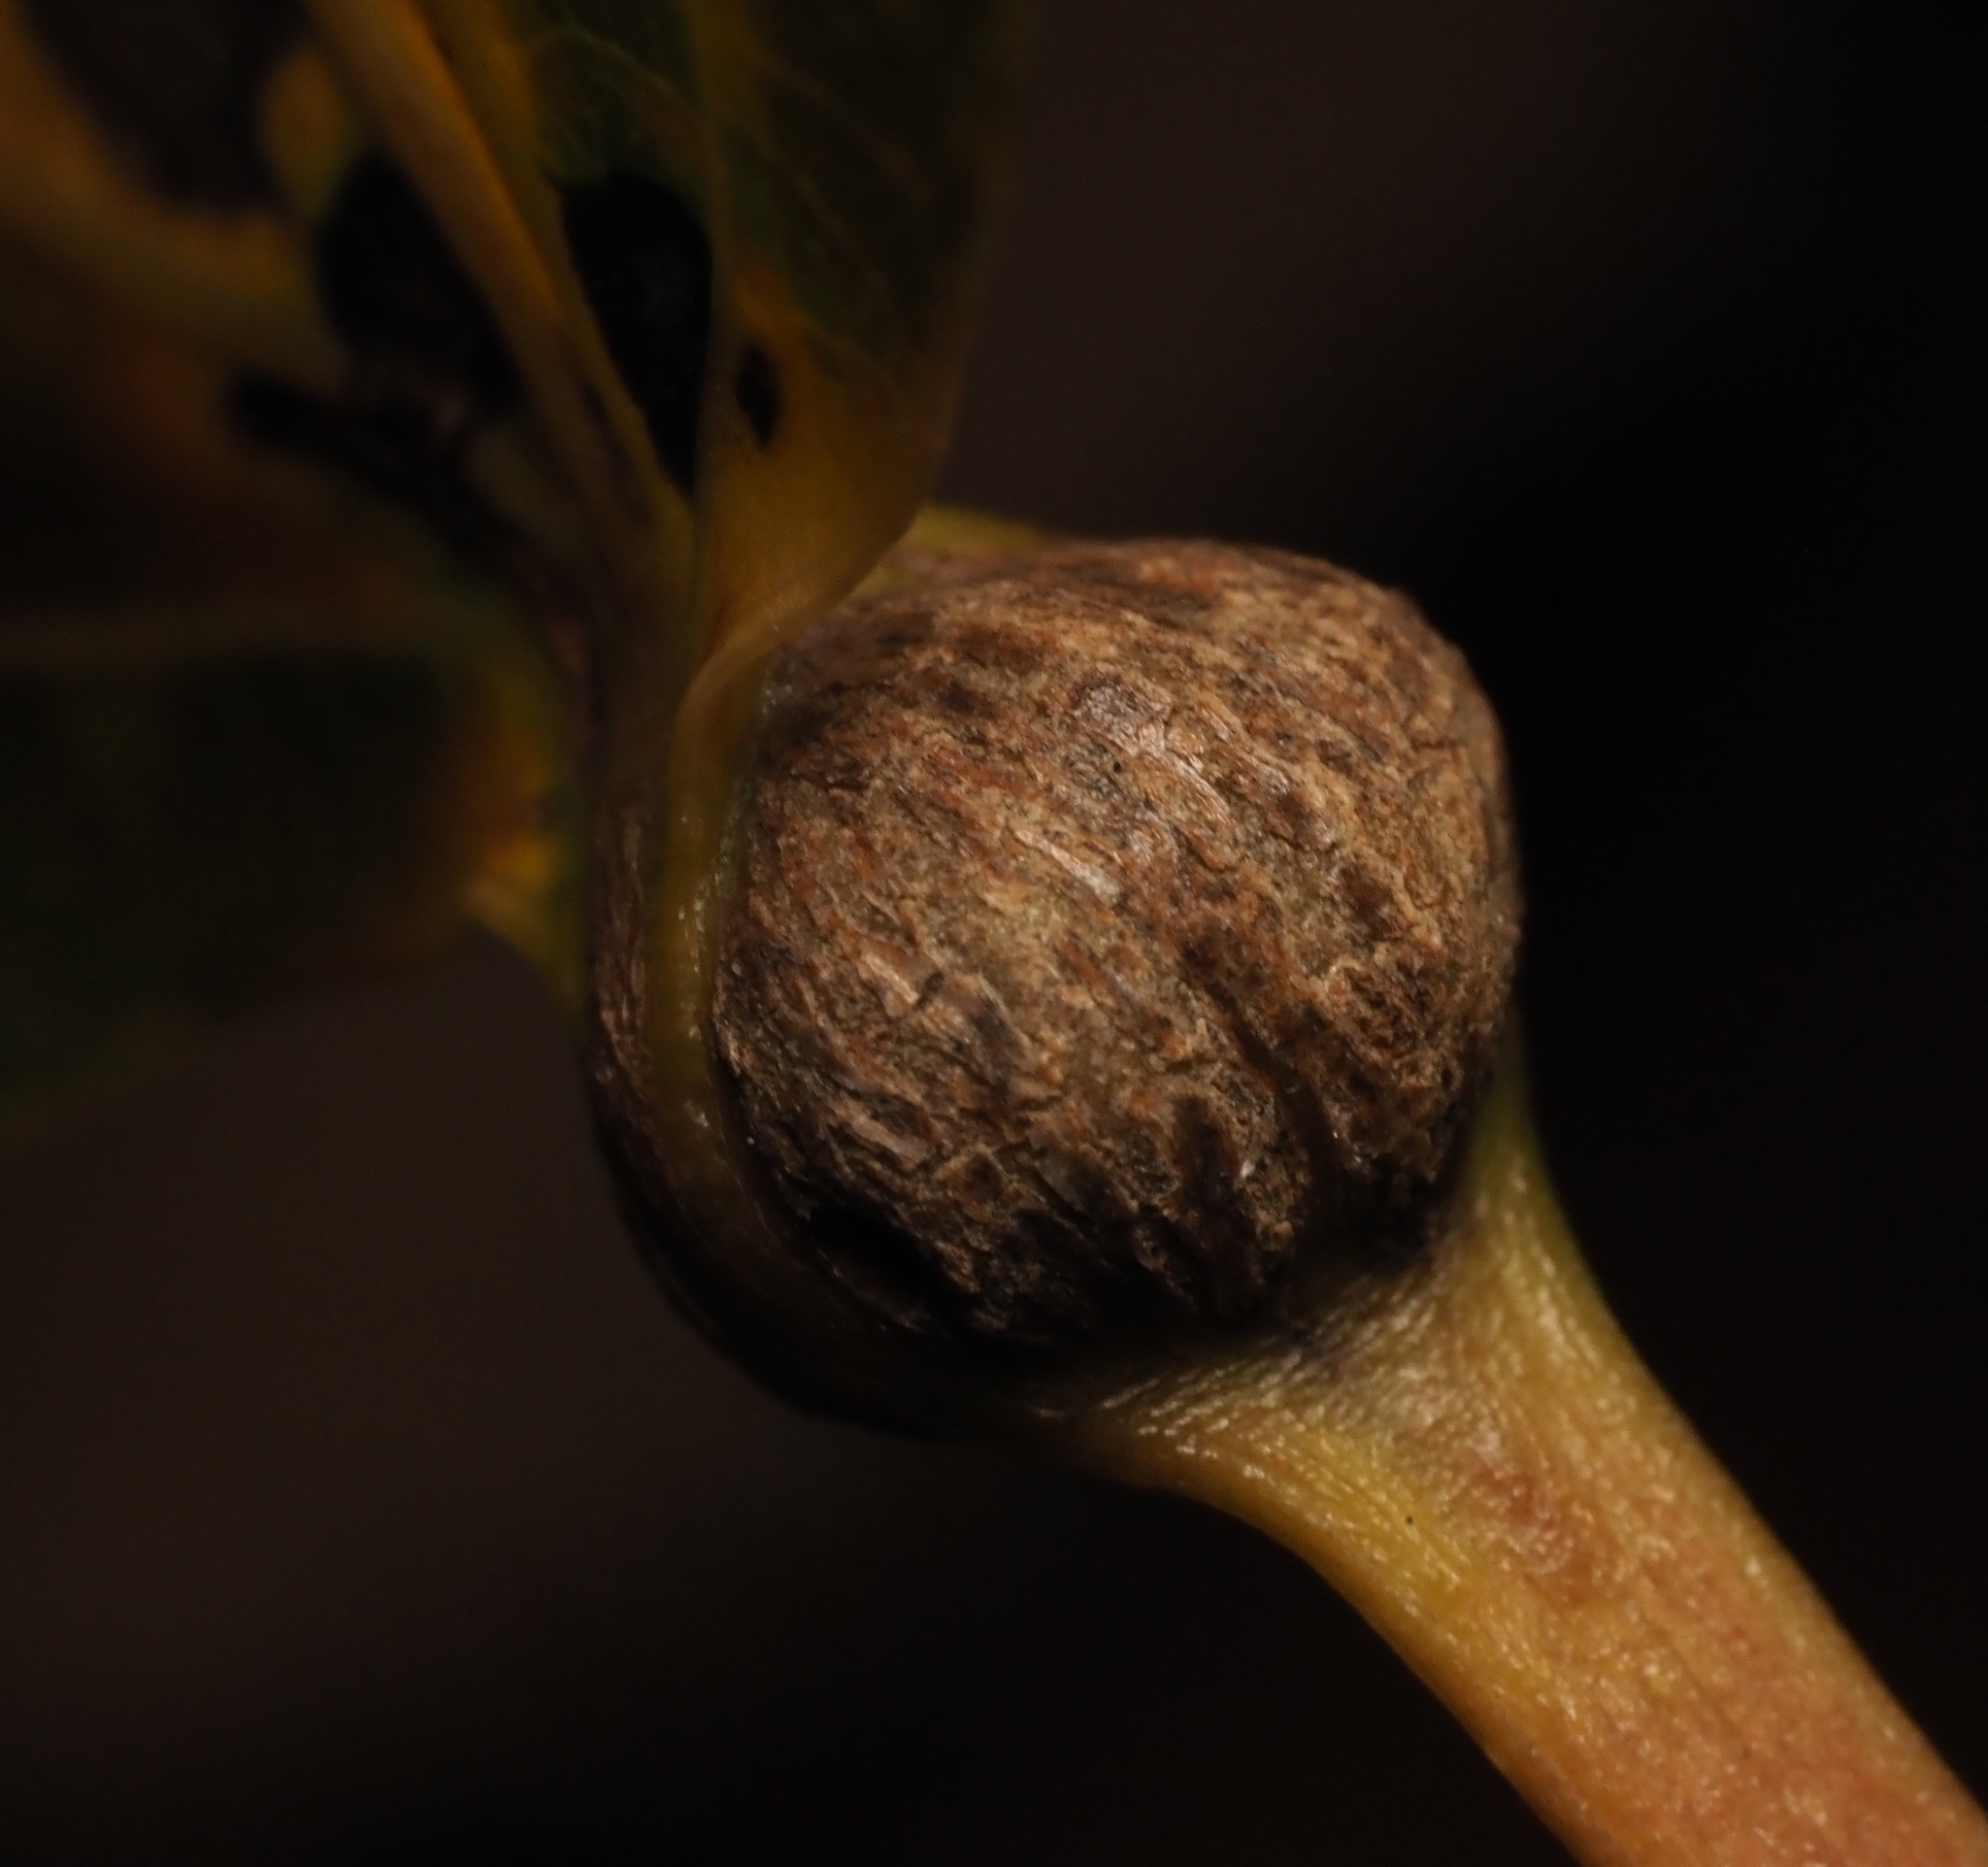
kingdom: Animalia
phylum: Arthropoda
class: Insecta
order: Lepidoptera
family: Nepticulidae
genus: Ectoedemia
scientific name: Ectoedemia populella
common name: Aspen petiole gall moth
